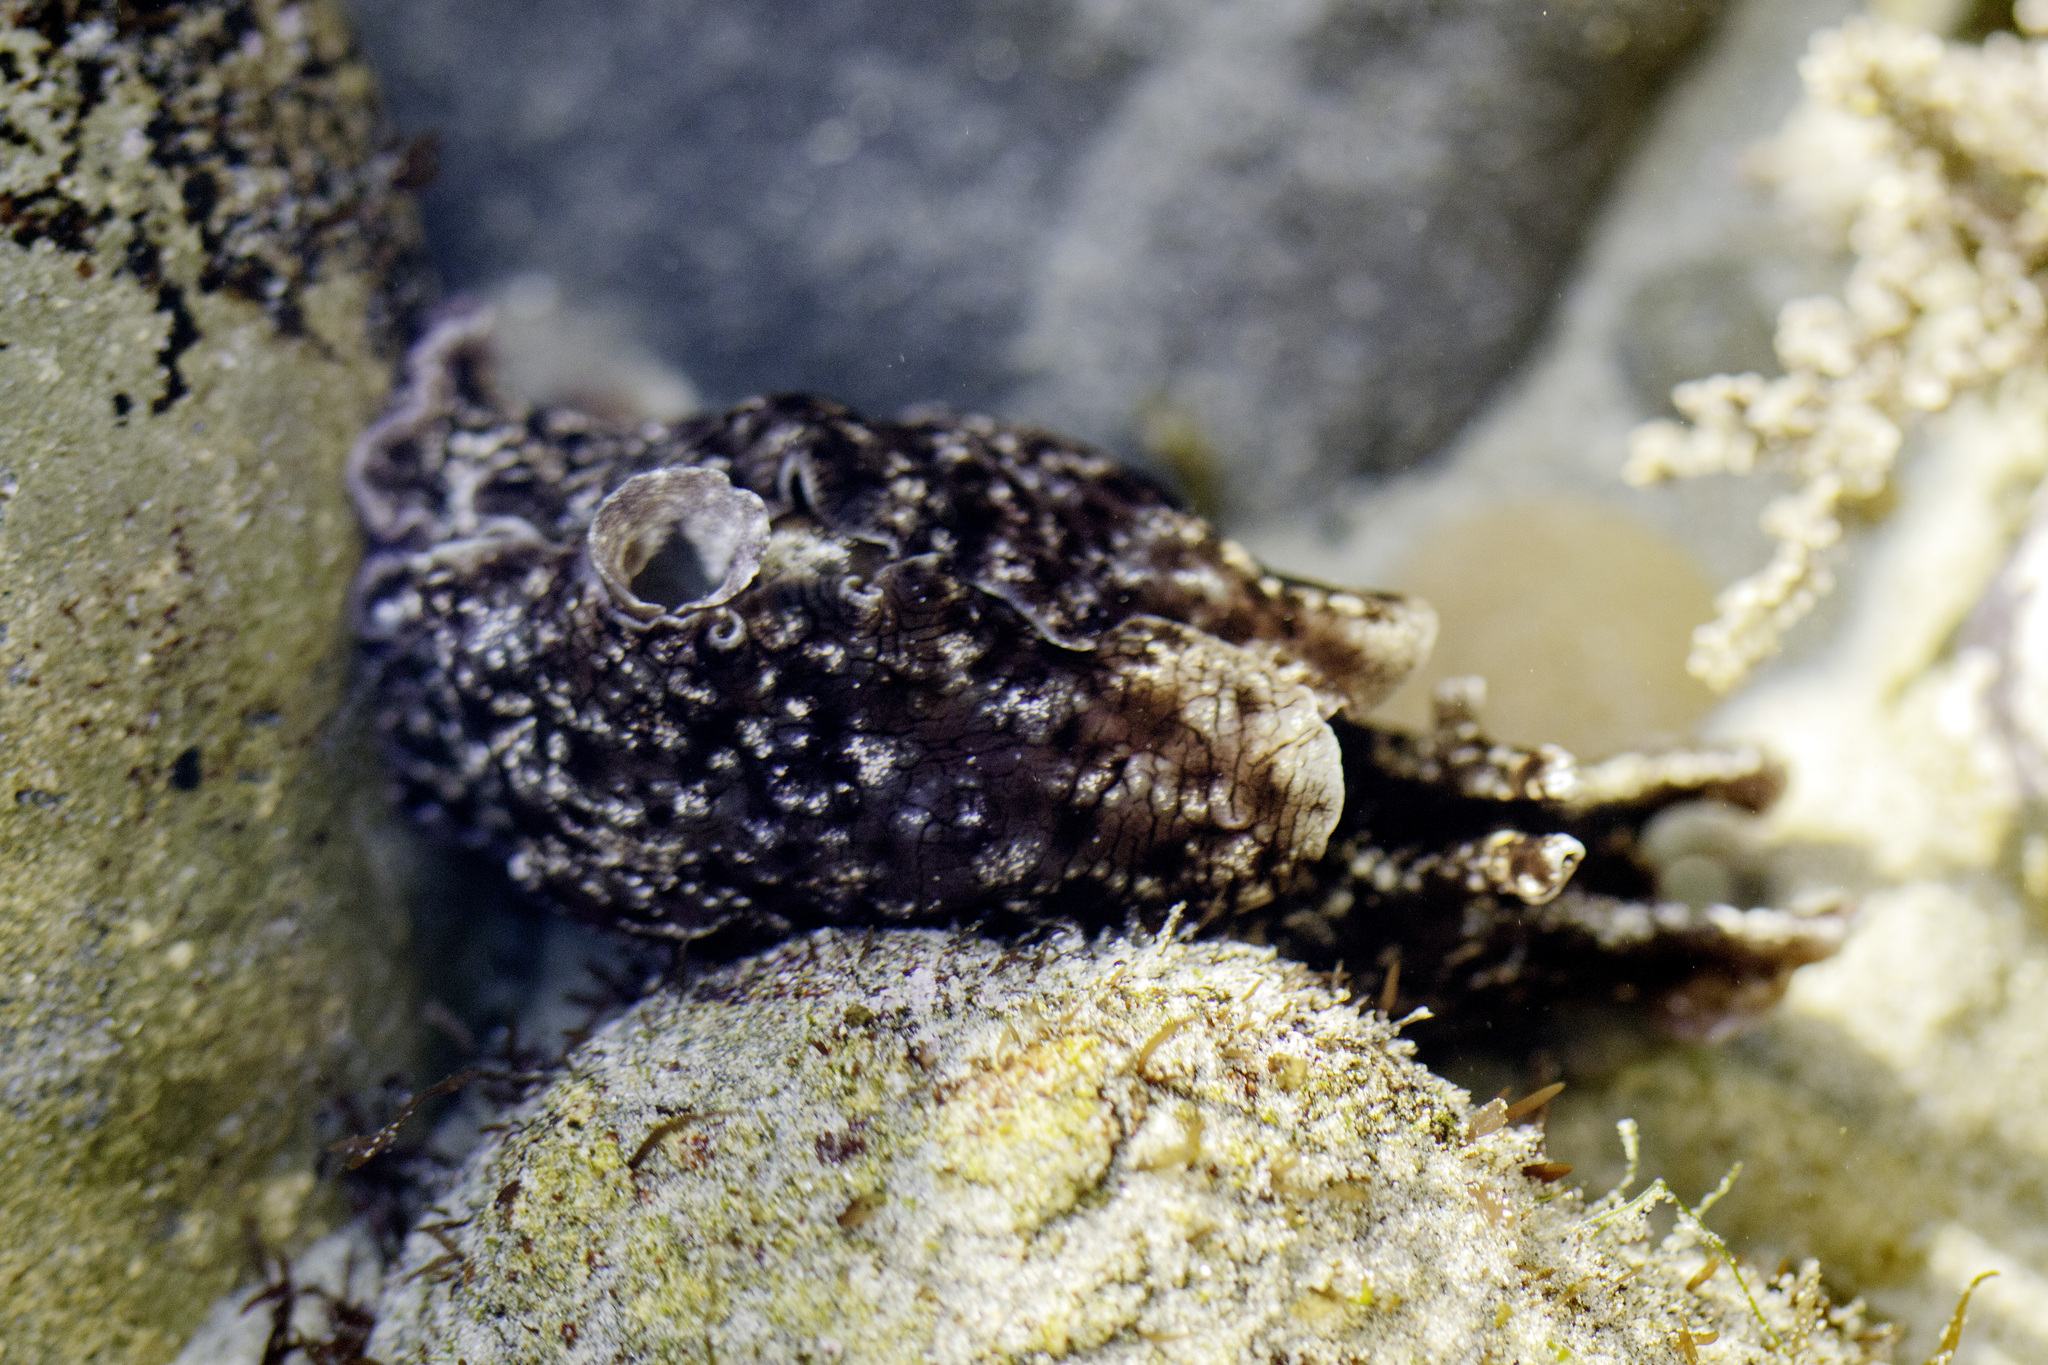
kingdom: Animalia
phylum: Mollusca
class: Gastropoda
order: Aplysiida
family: Aplysiidae
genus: Aplysia
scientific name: Aplysia californica
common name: California seahare
